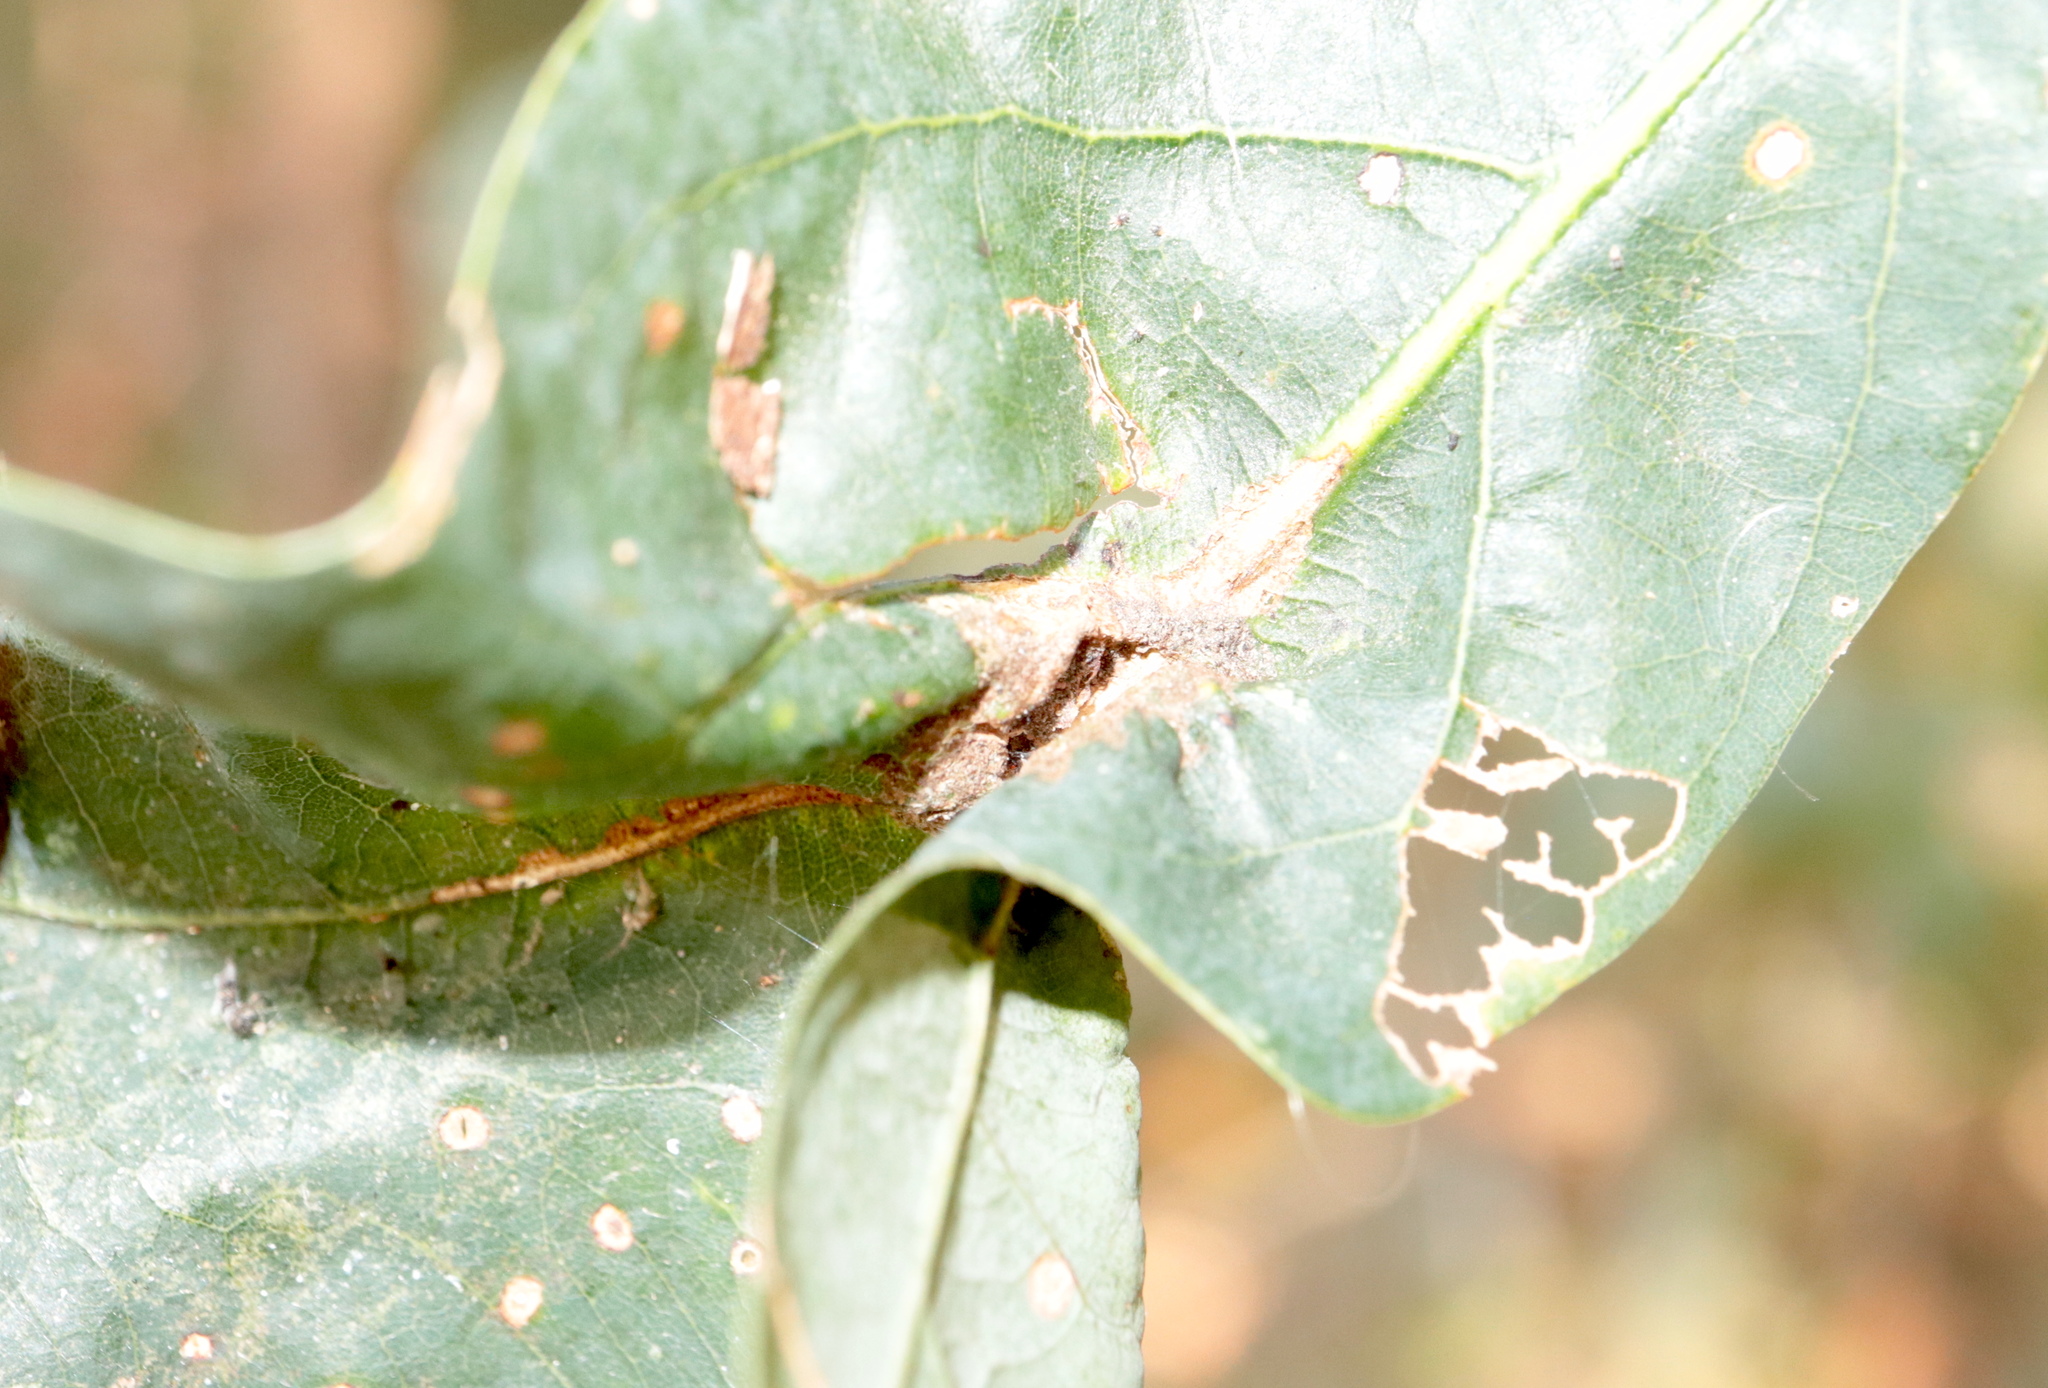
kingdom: Animalia
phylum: Arthropoda
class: Insecta
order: Diptera
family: Cecidomyiidae
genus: Macrodiplosis
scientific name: Macrodiplosis niveipila
